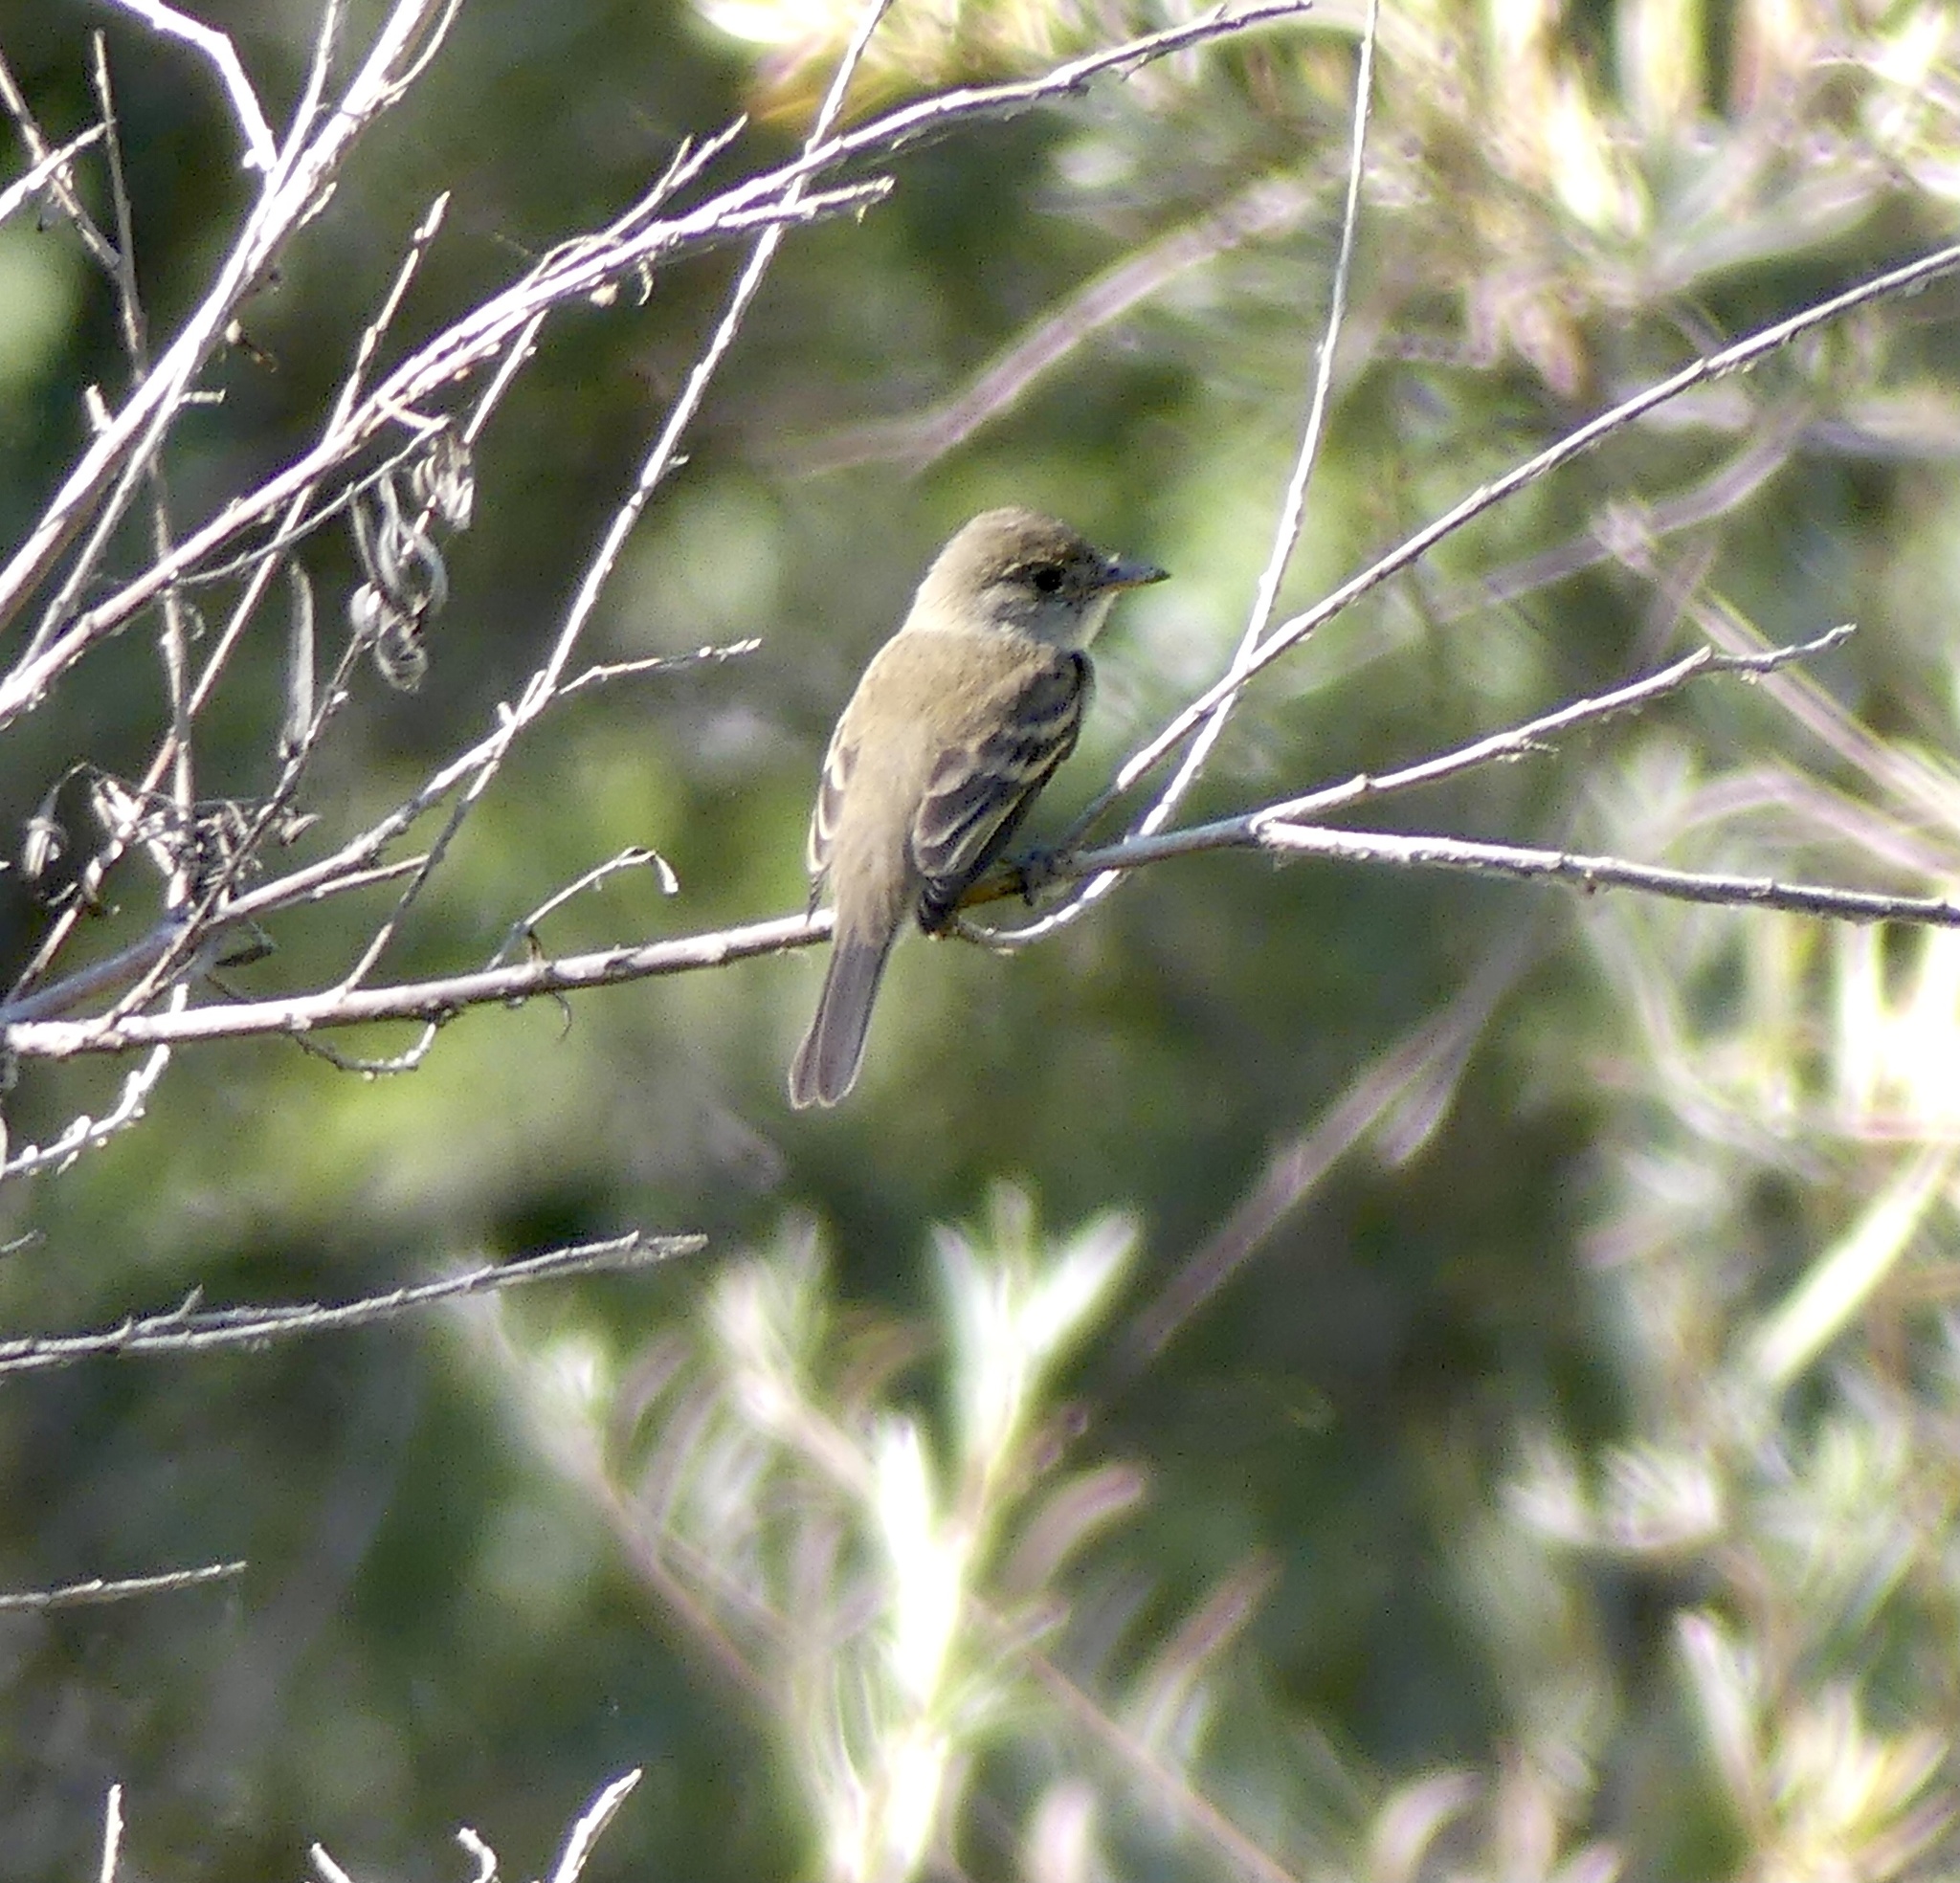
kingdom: Animalia
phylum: Chordata
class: Aves
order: Passeriformes
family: Tyrannidae
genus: Empidonax
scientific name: Empidonax traillii
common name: Willow flycatcher
